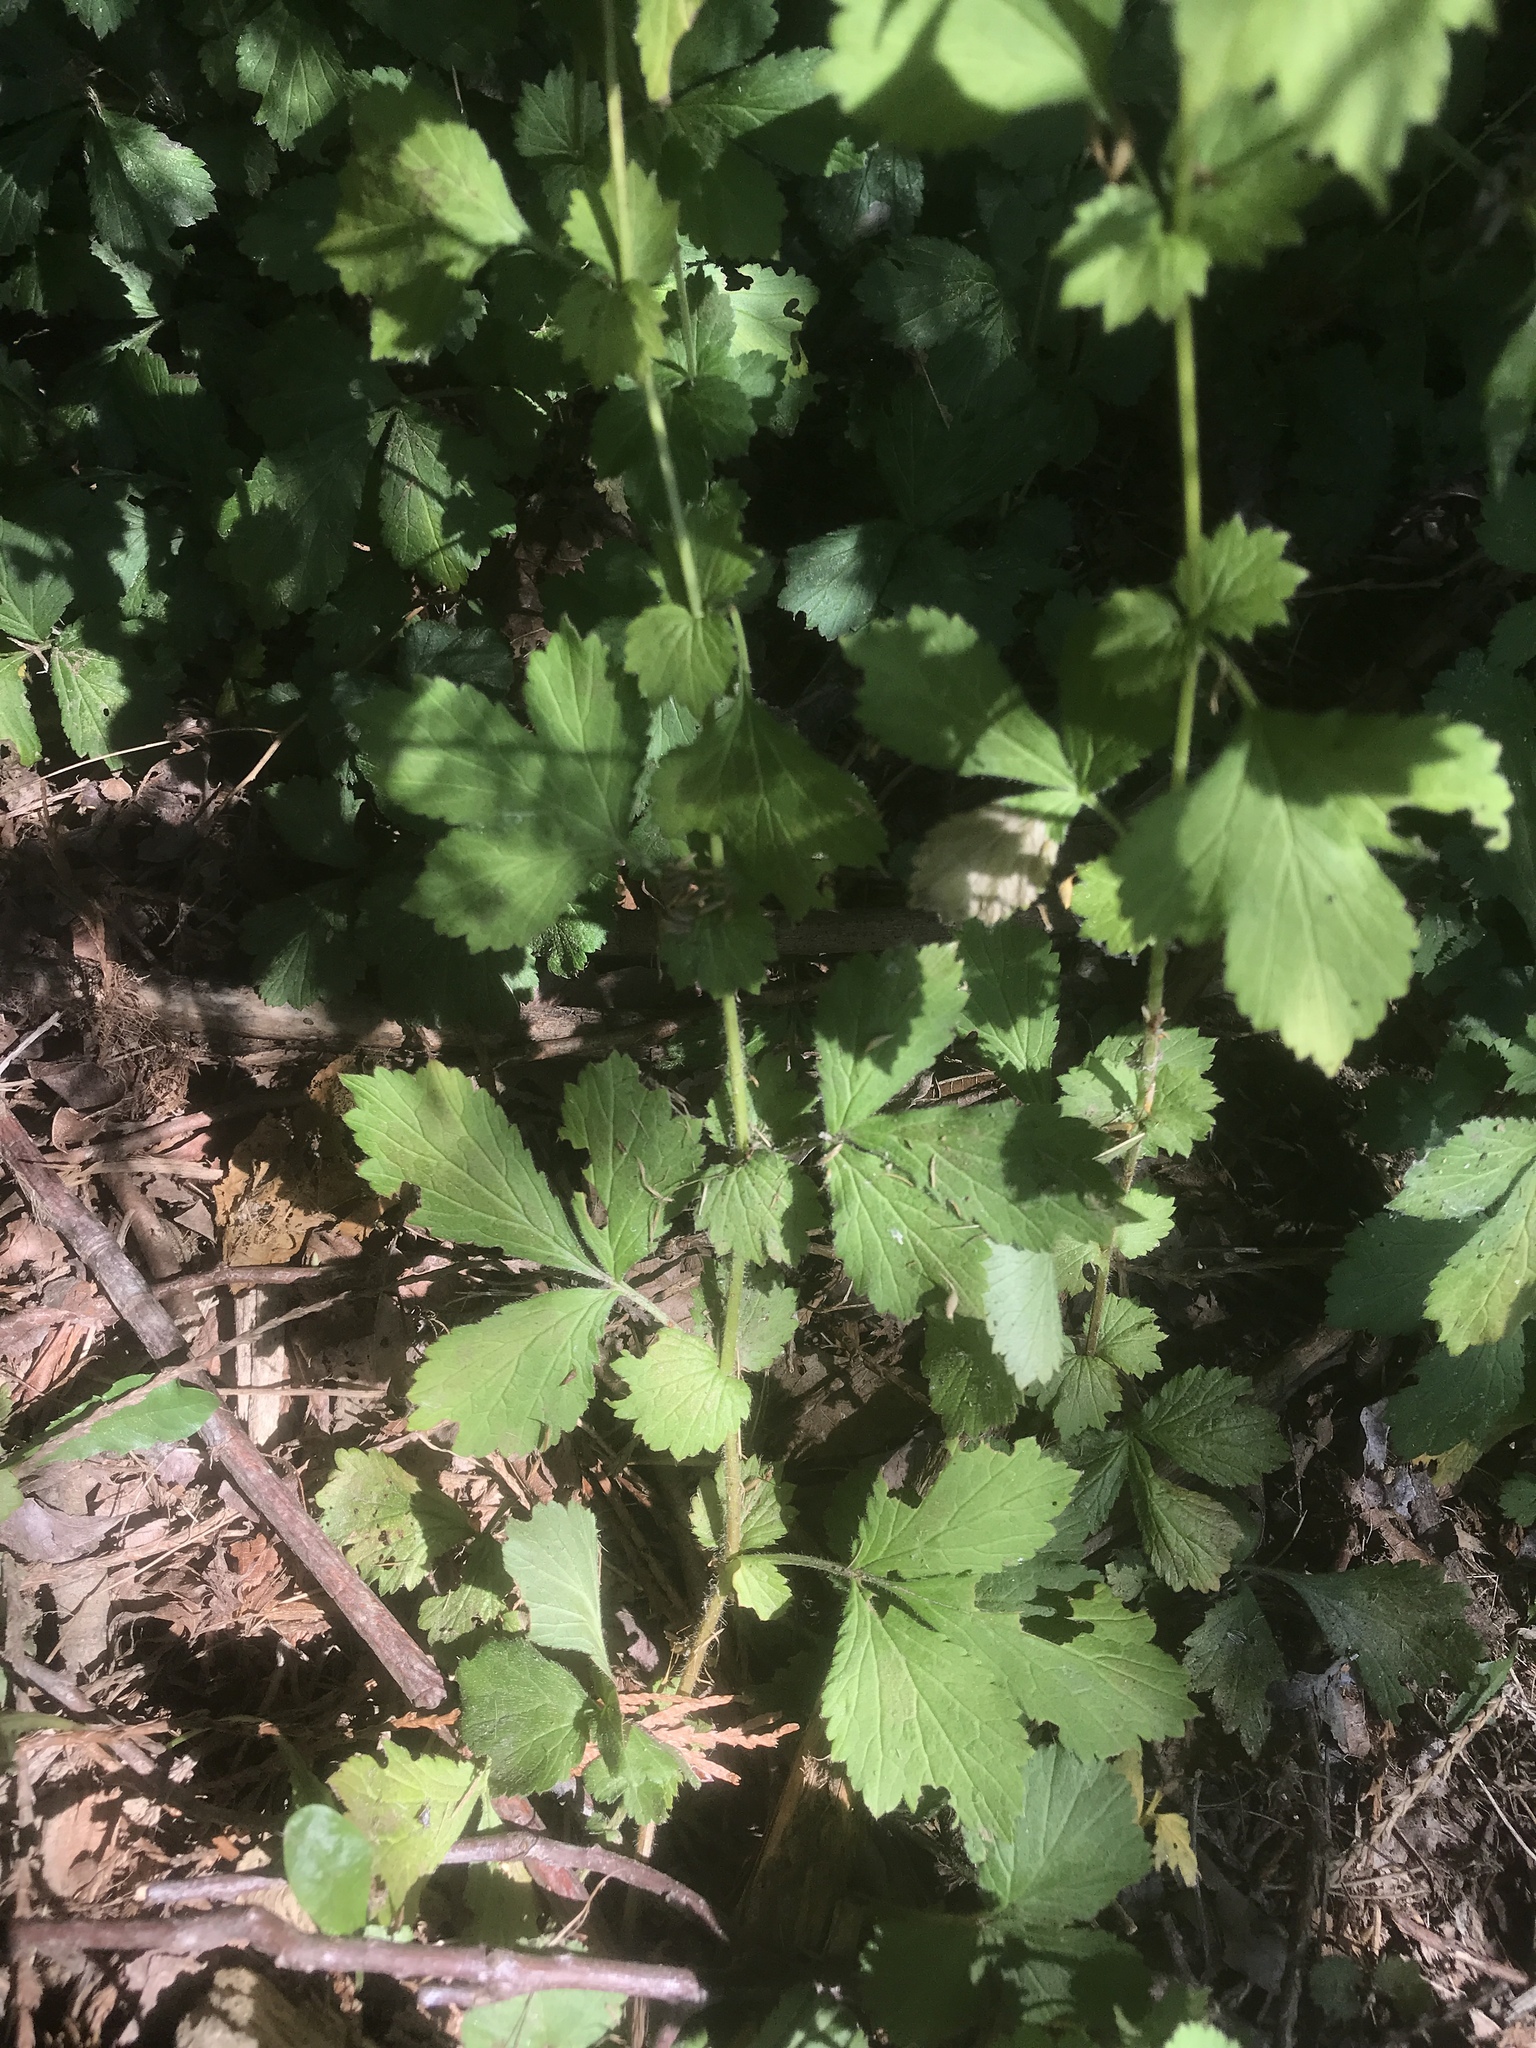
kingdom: Plantae
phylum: Tracheophyta
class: Magnoliopsida
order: Rosales
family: Rosaceae
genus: Geum
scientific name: Geum urbanum
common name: Wood avens
